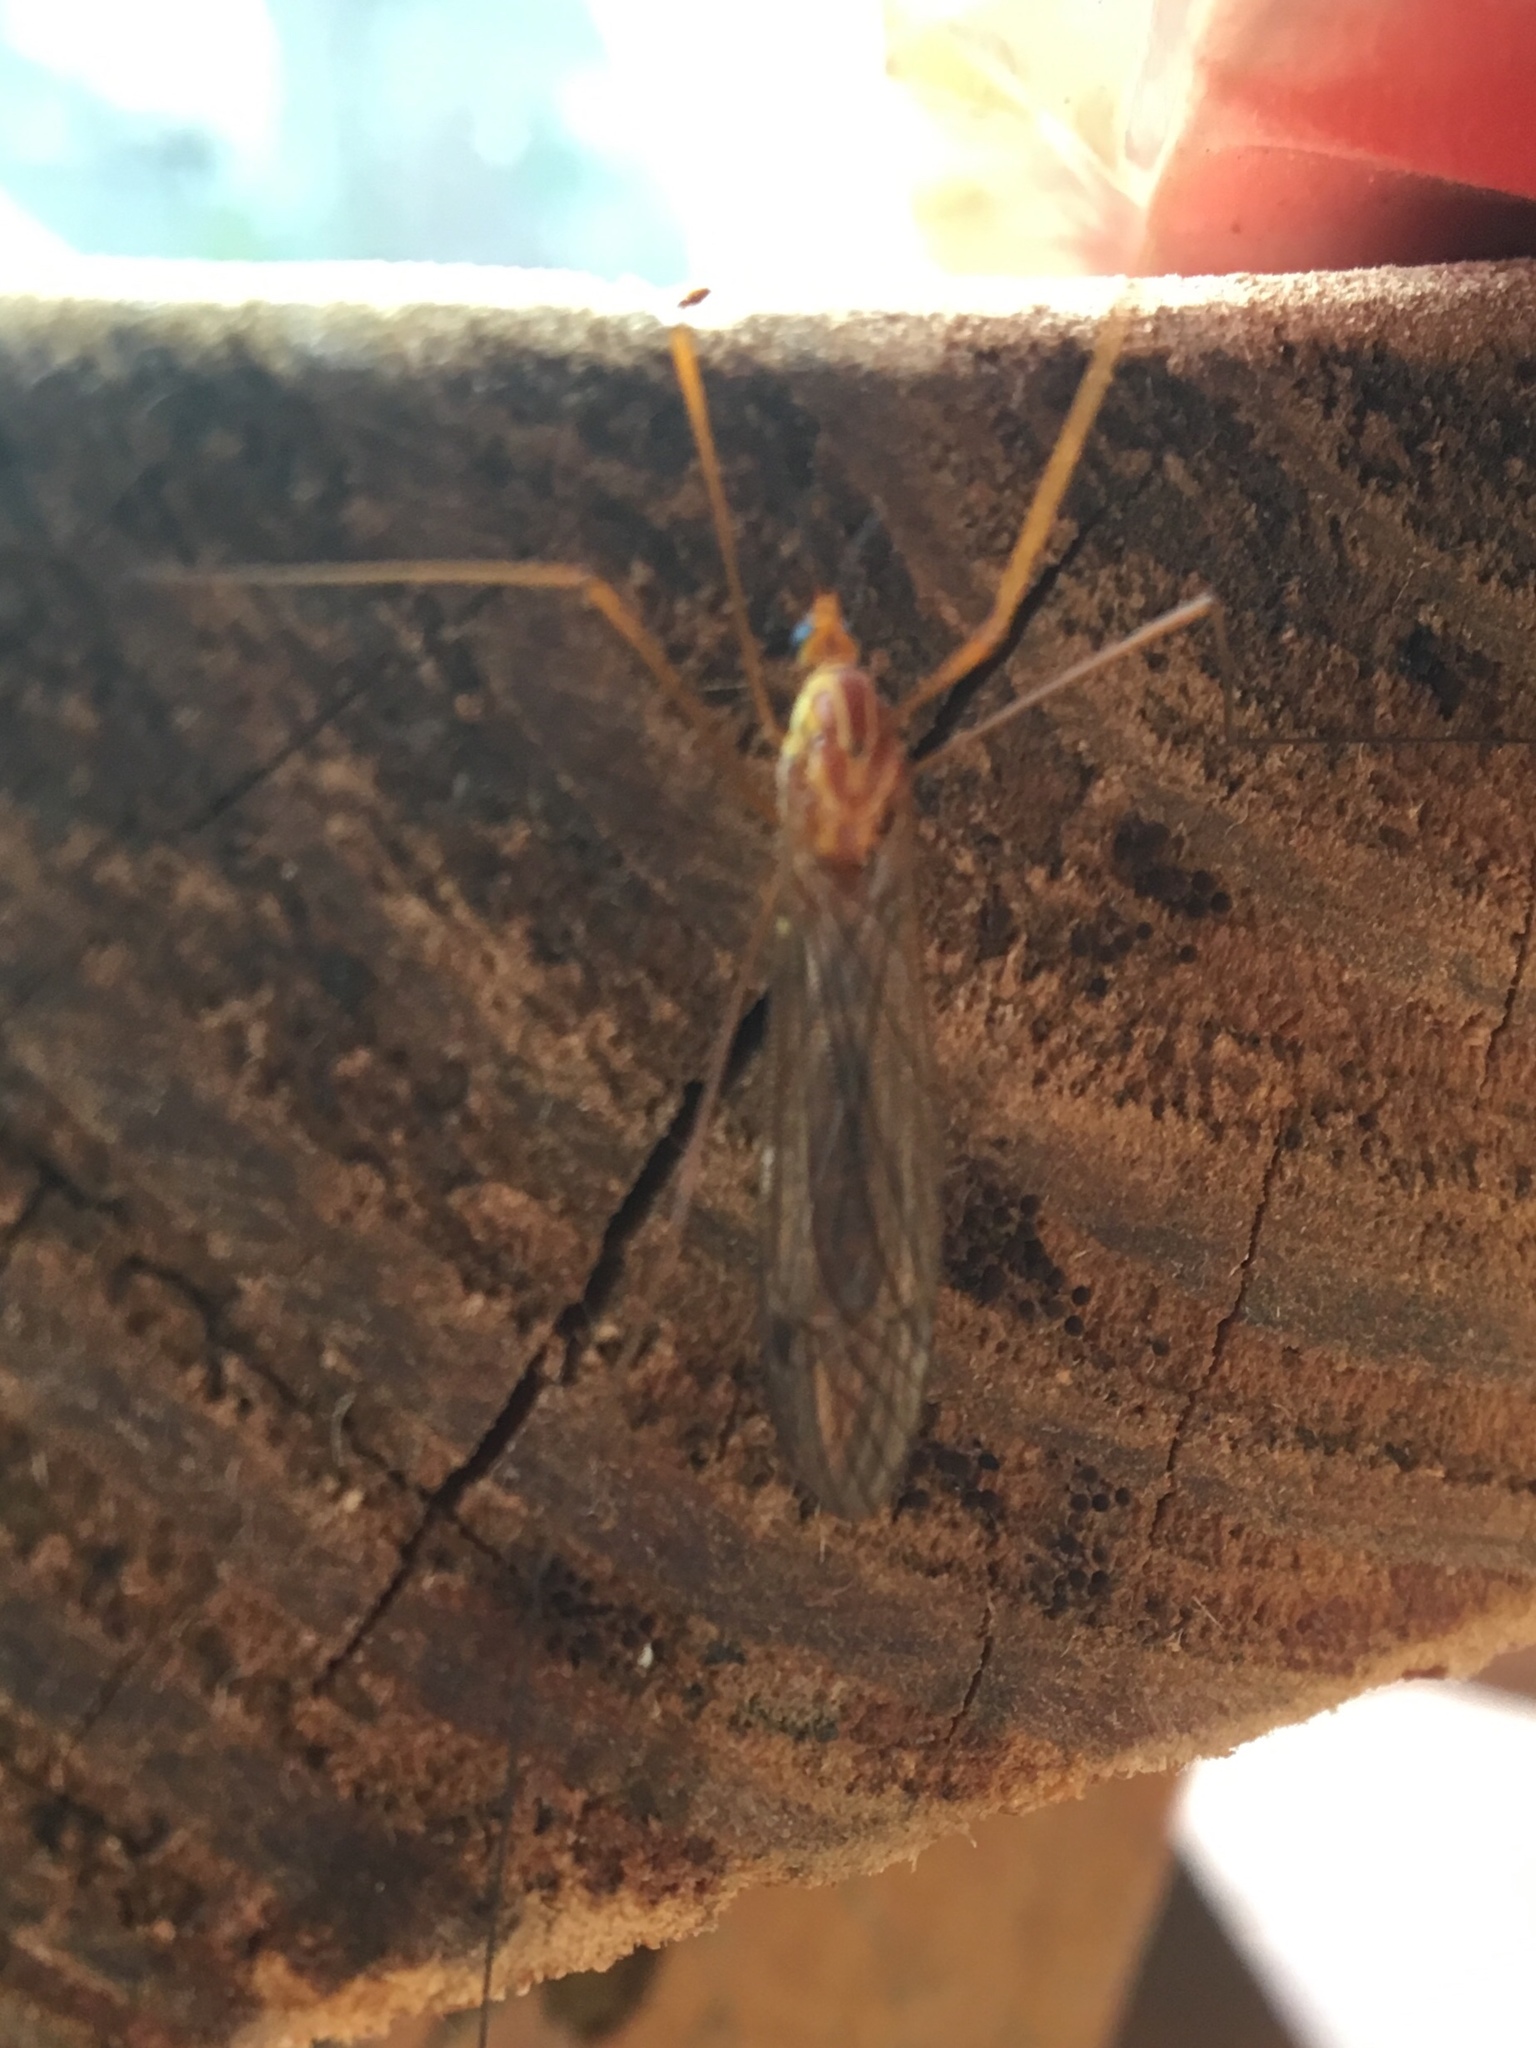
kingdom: Animalia
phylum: Arthropoda
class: Insecta
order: Diptera
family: Tipulidae
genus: Nephrotoma
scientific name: Nephrotoma
